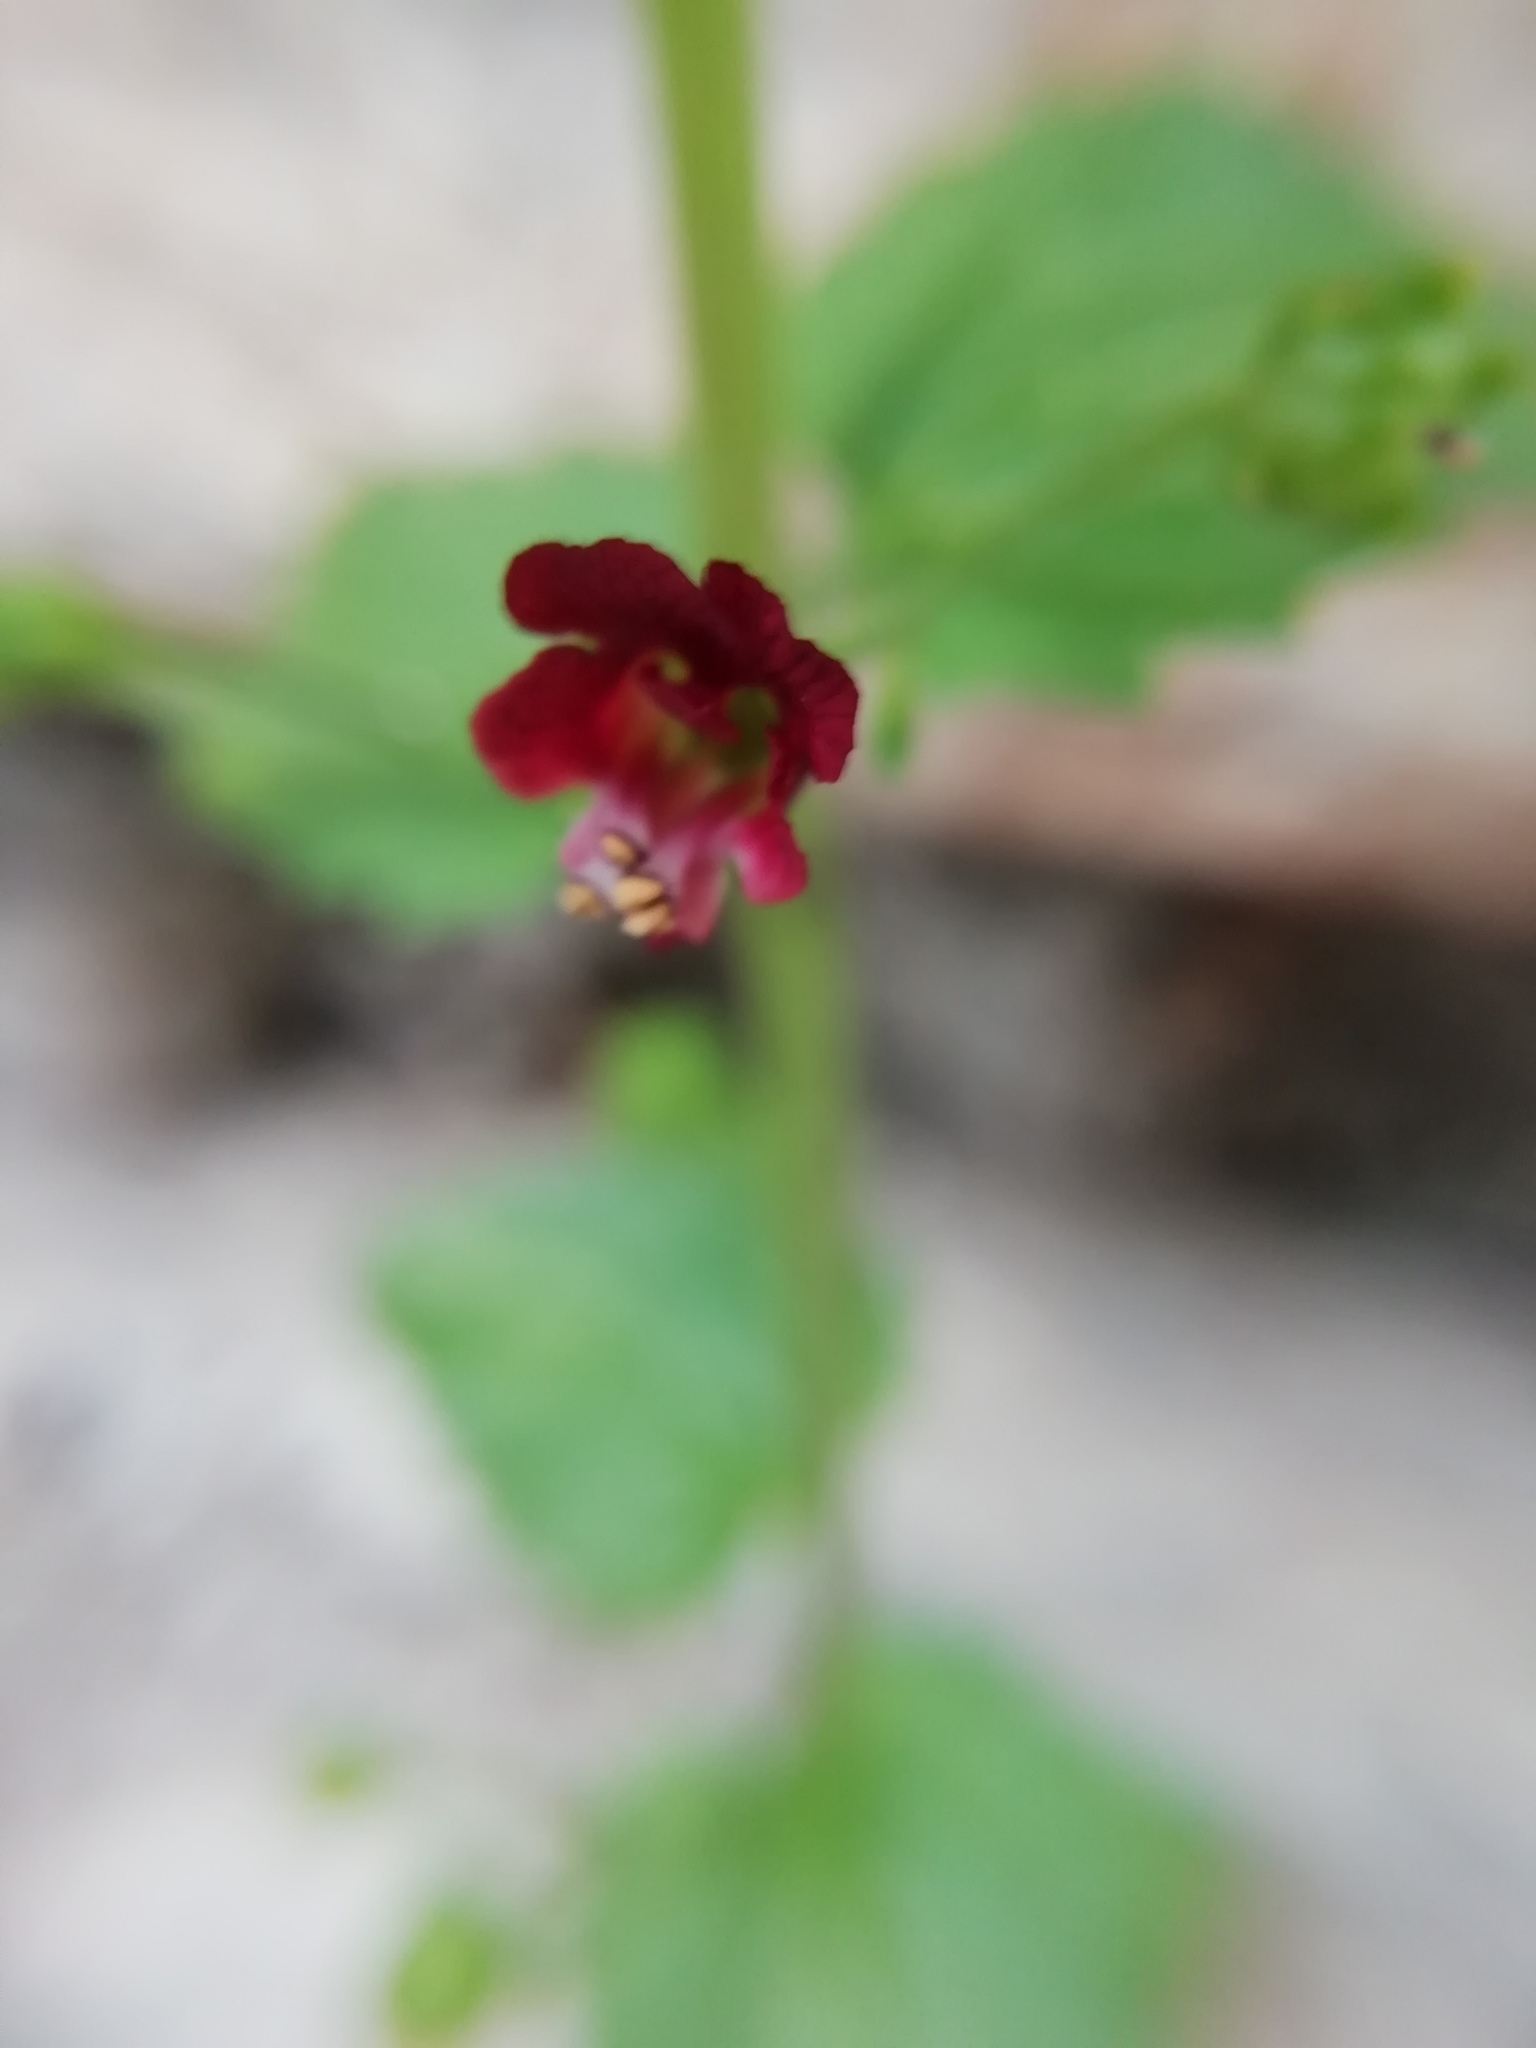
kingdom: Plantae
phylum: Tracheophyta
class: Magnoliopsida
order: Lamiales
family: Scrophulariaceae
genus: Scrophularia
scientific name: Scrophularia peregrina
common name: Mediterranean figwort
